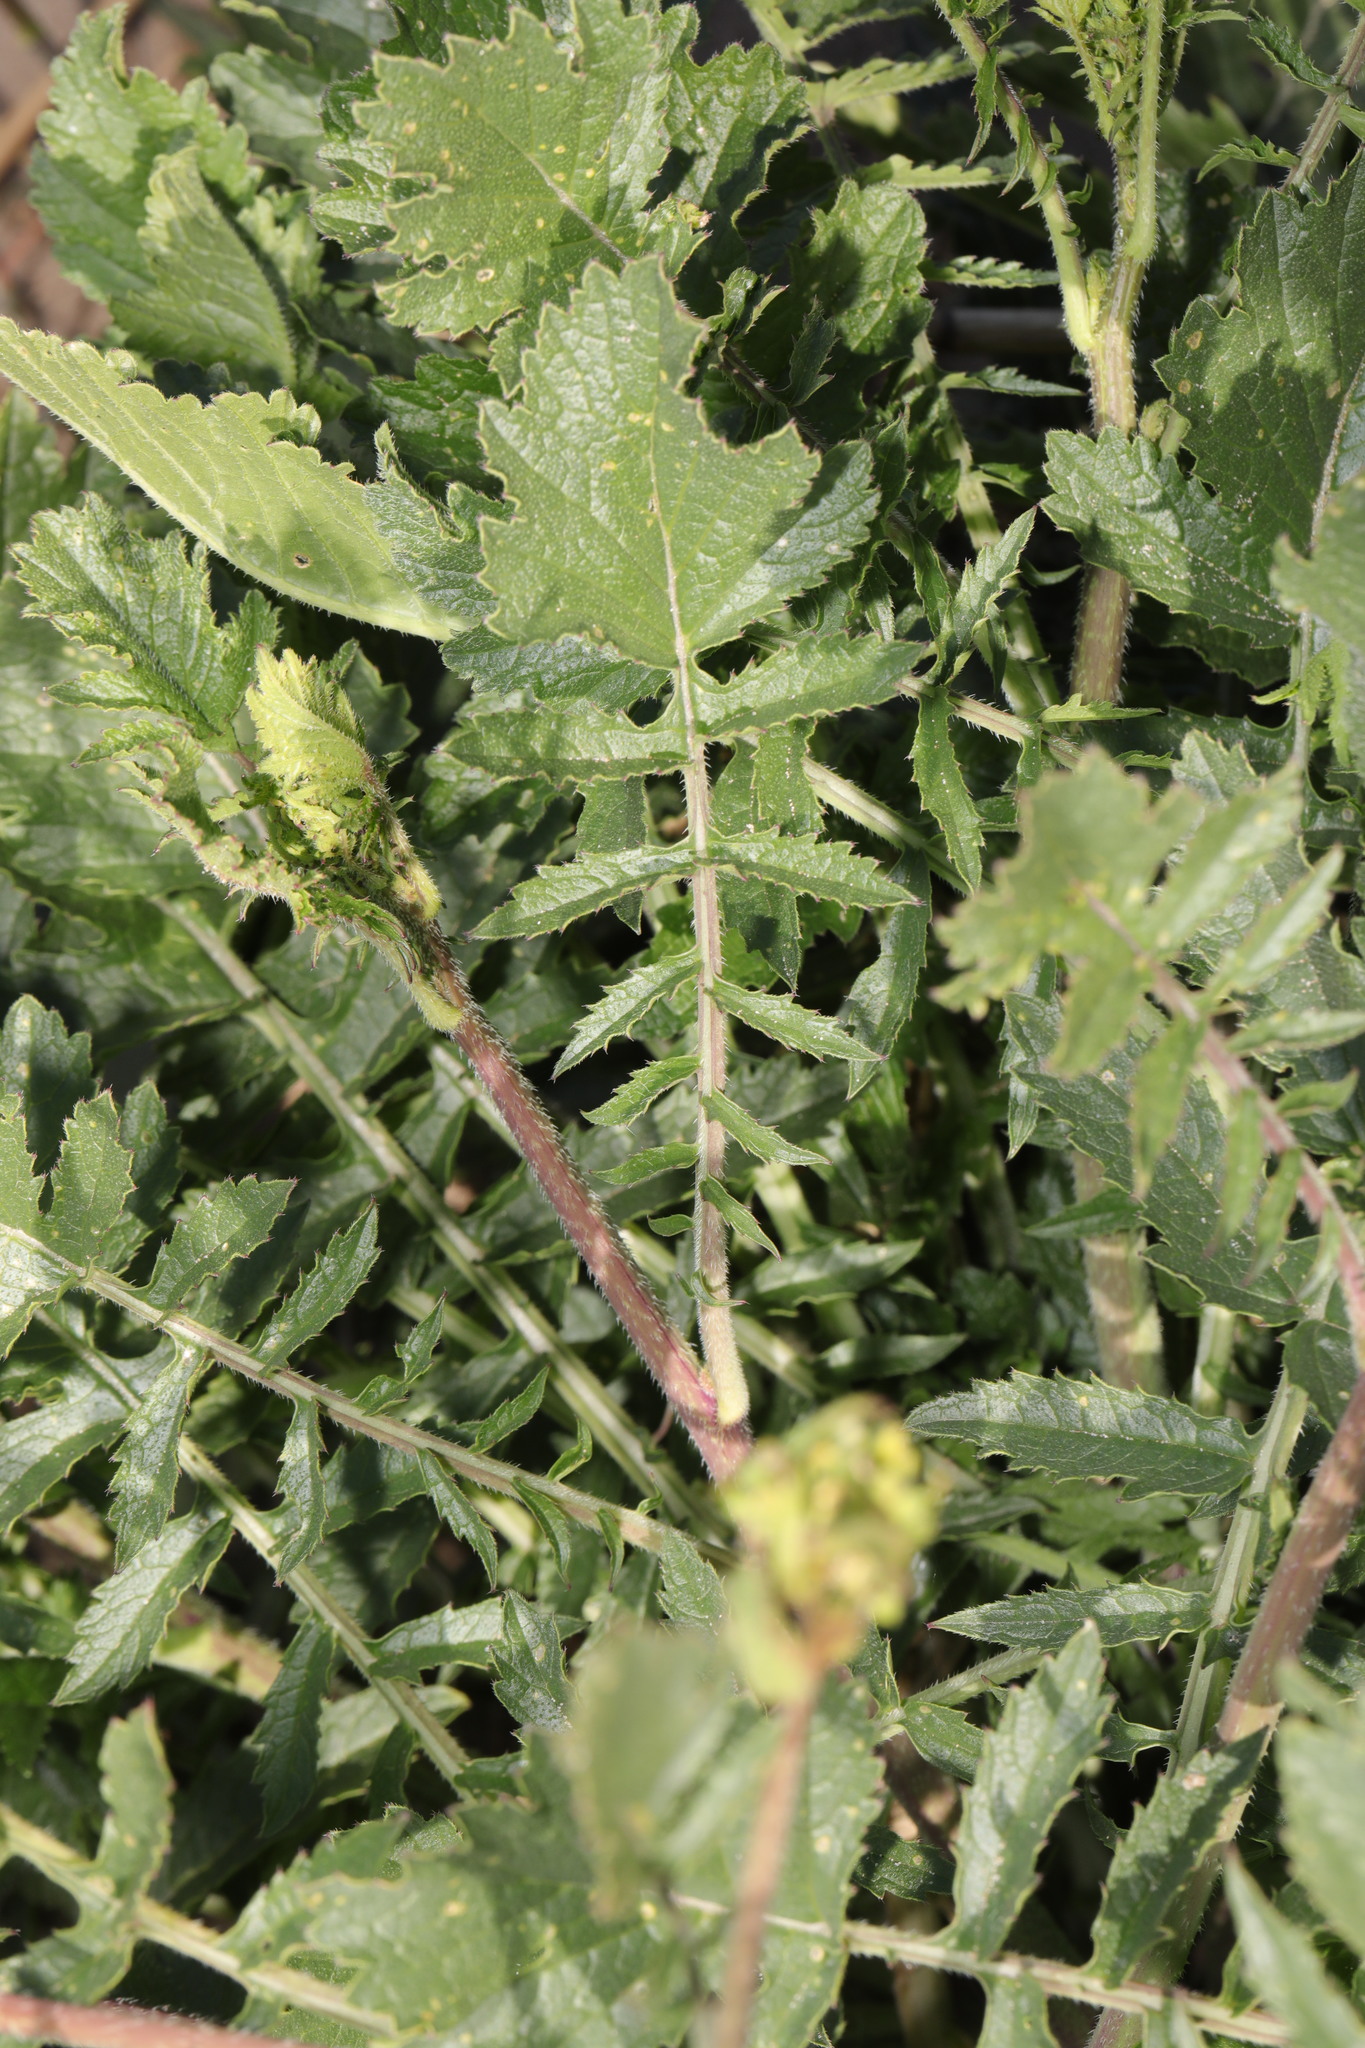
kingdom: Plantae
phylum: Tracheophyta
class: Magnoliopsida
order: Brassicales
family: Brassicaceae
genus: Raphanus
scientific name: Raphanus raphanistrum
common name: Wild radish
